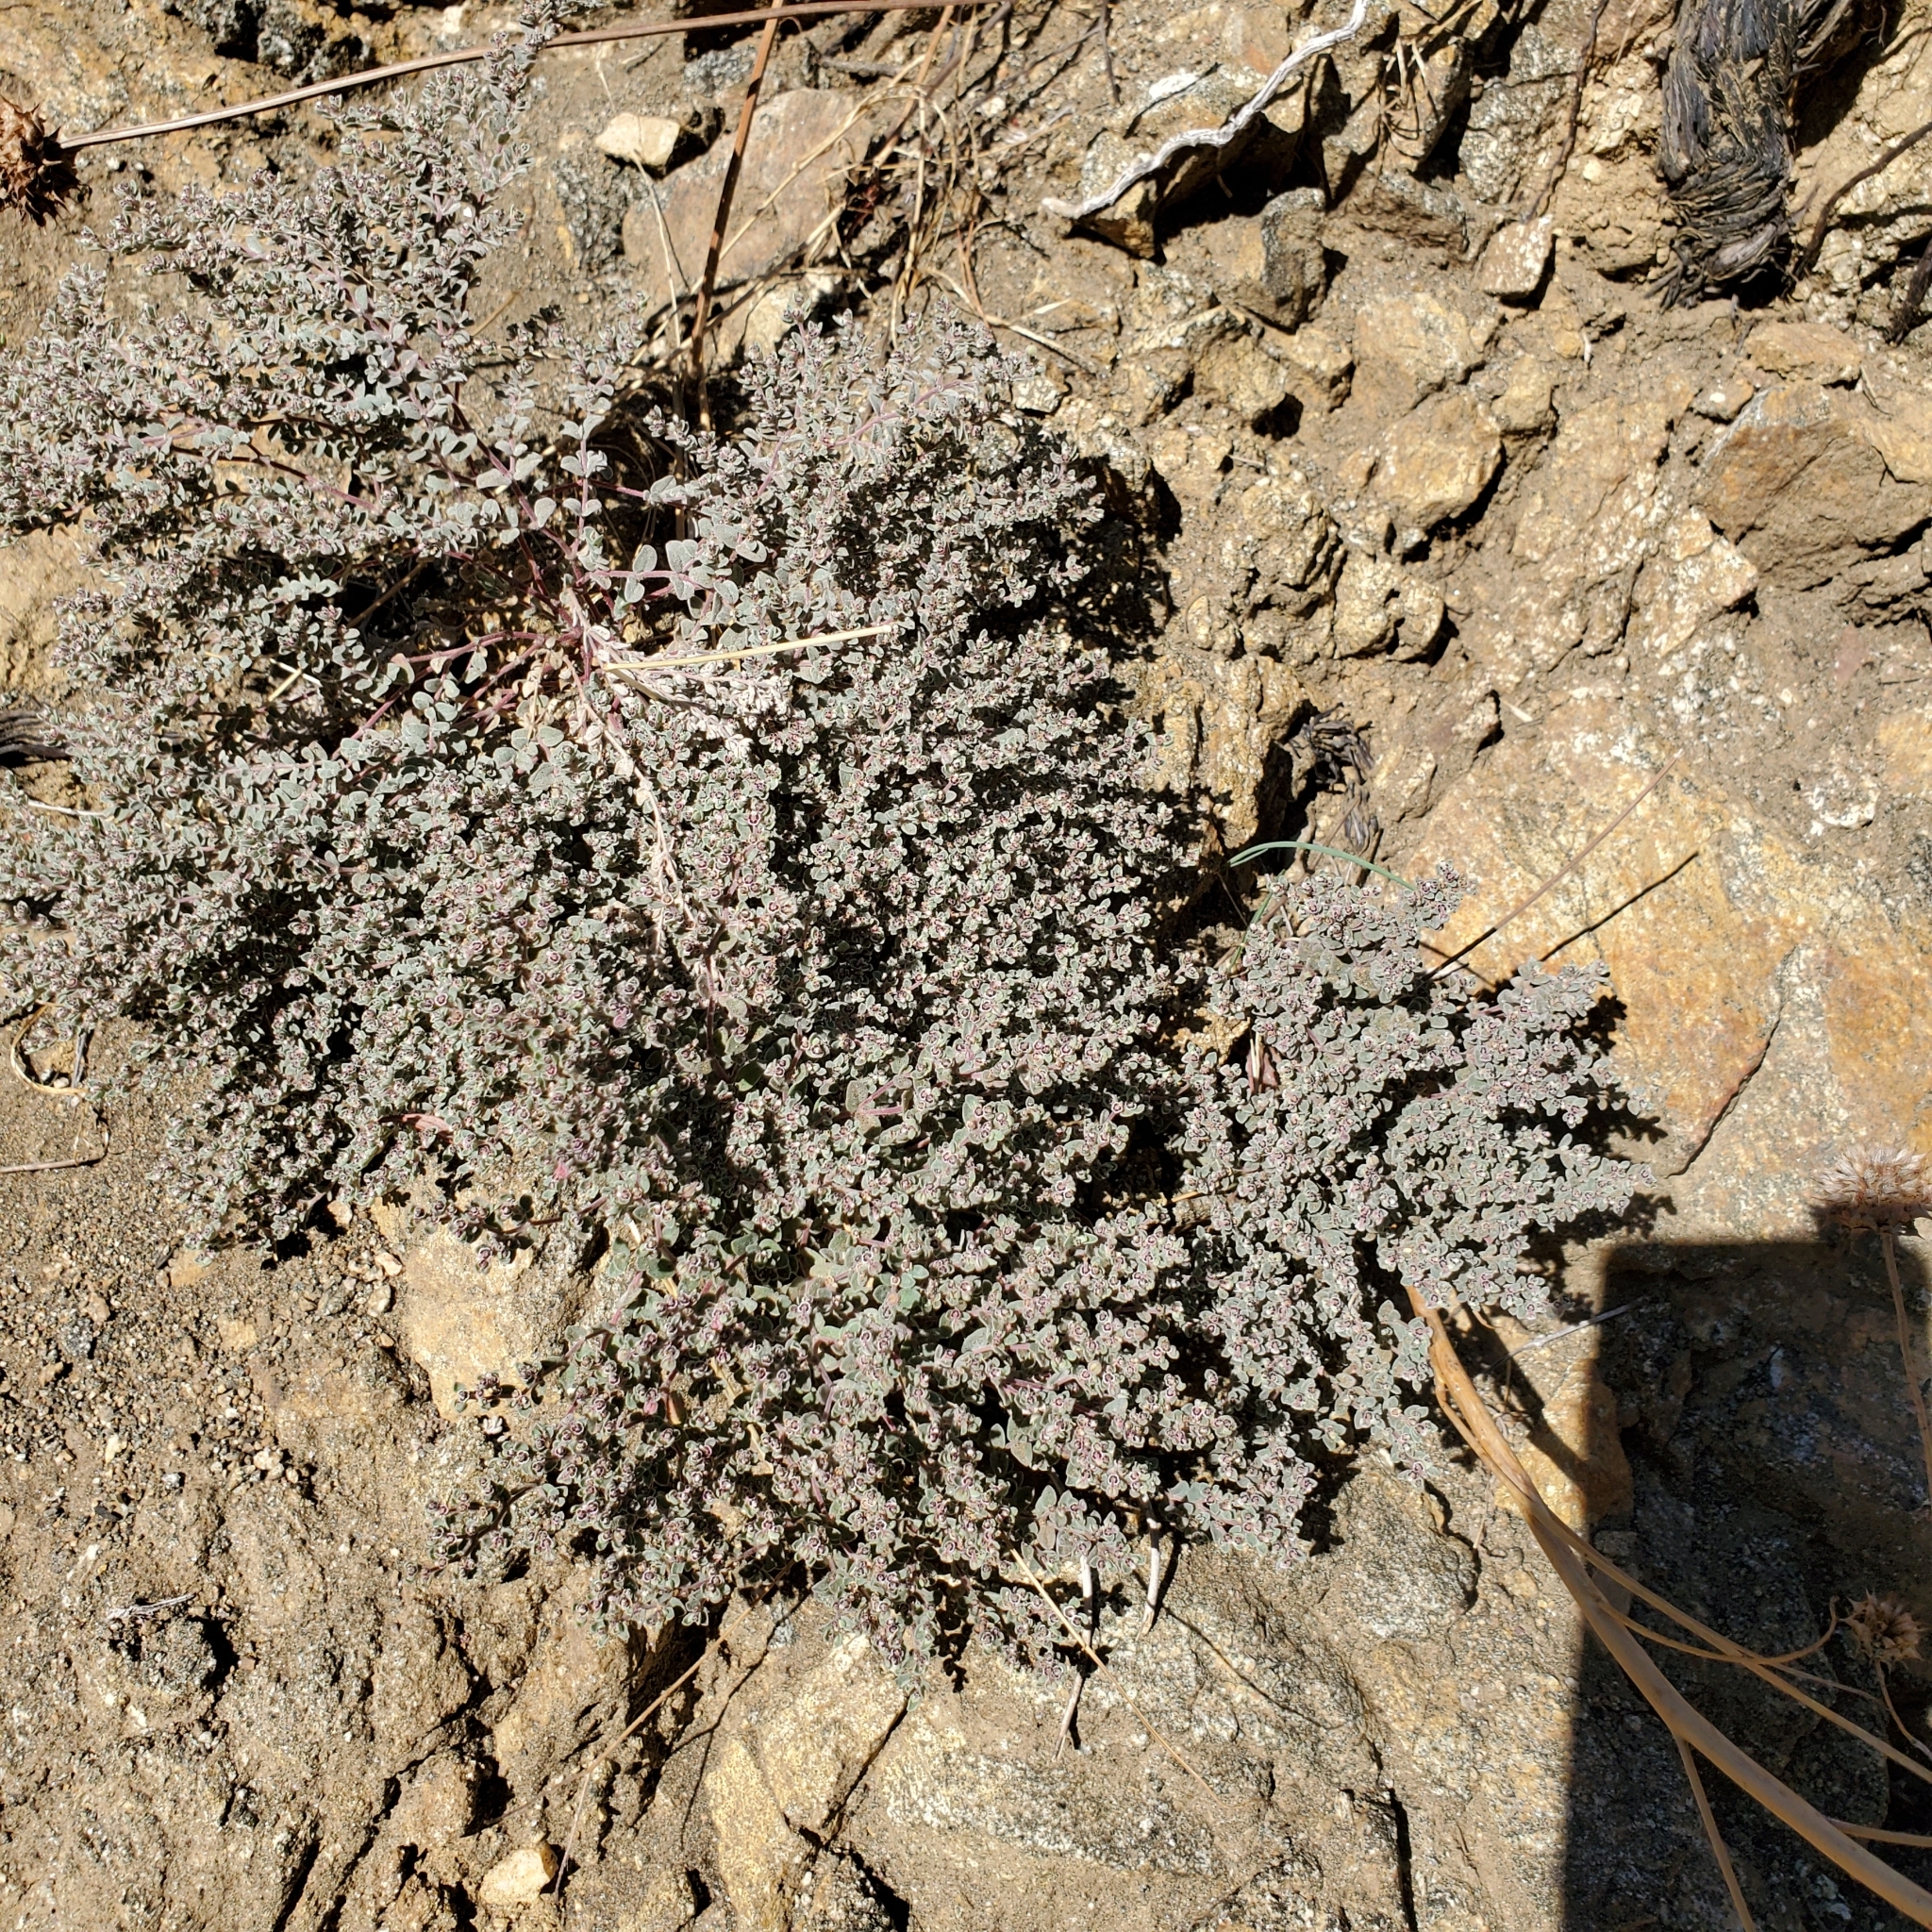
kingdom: Plantae
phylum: Tracheophyta
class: Magnoliopsida
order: Malpighiales
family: Euphorbiaceae
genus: Euphorbia
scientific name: Euphorbia melanadenia
